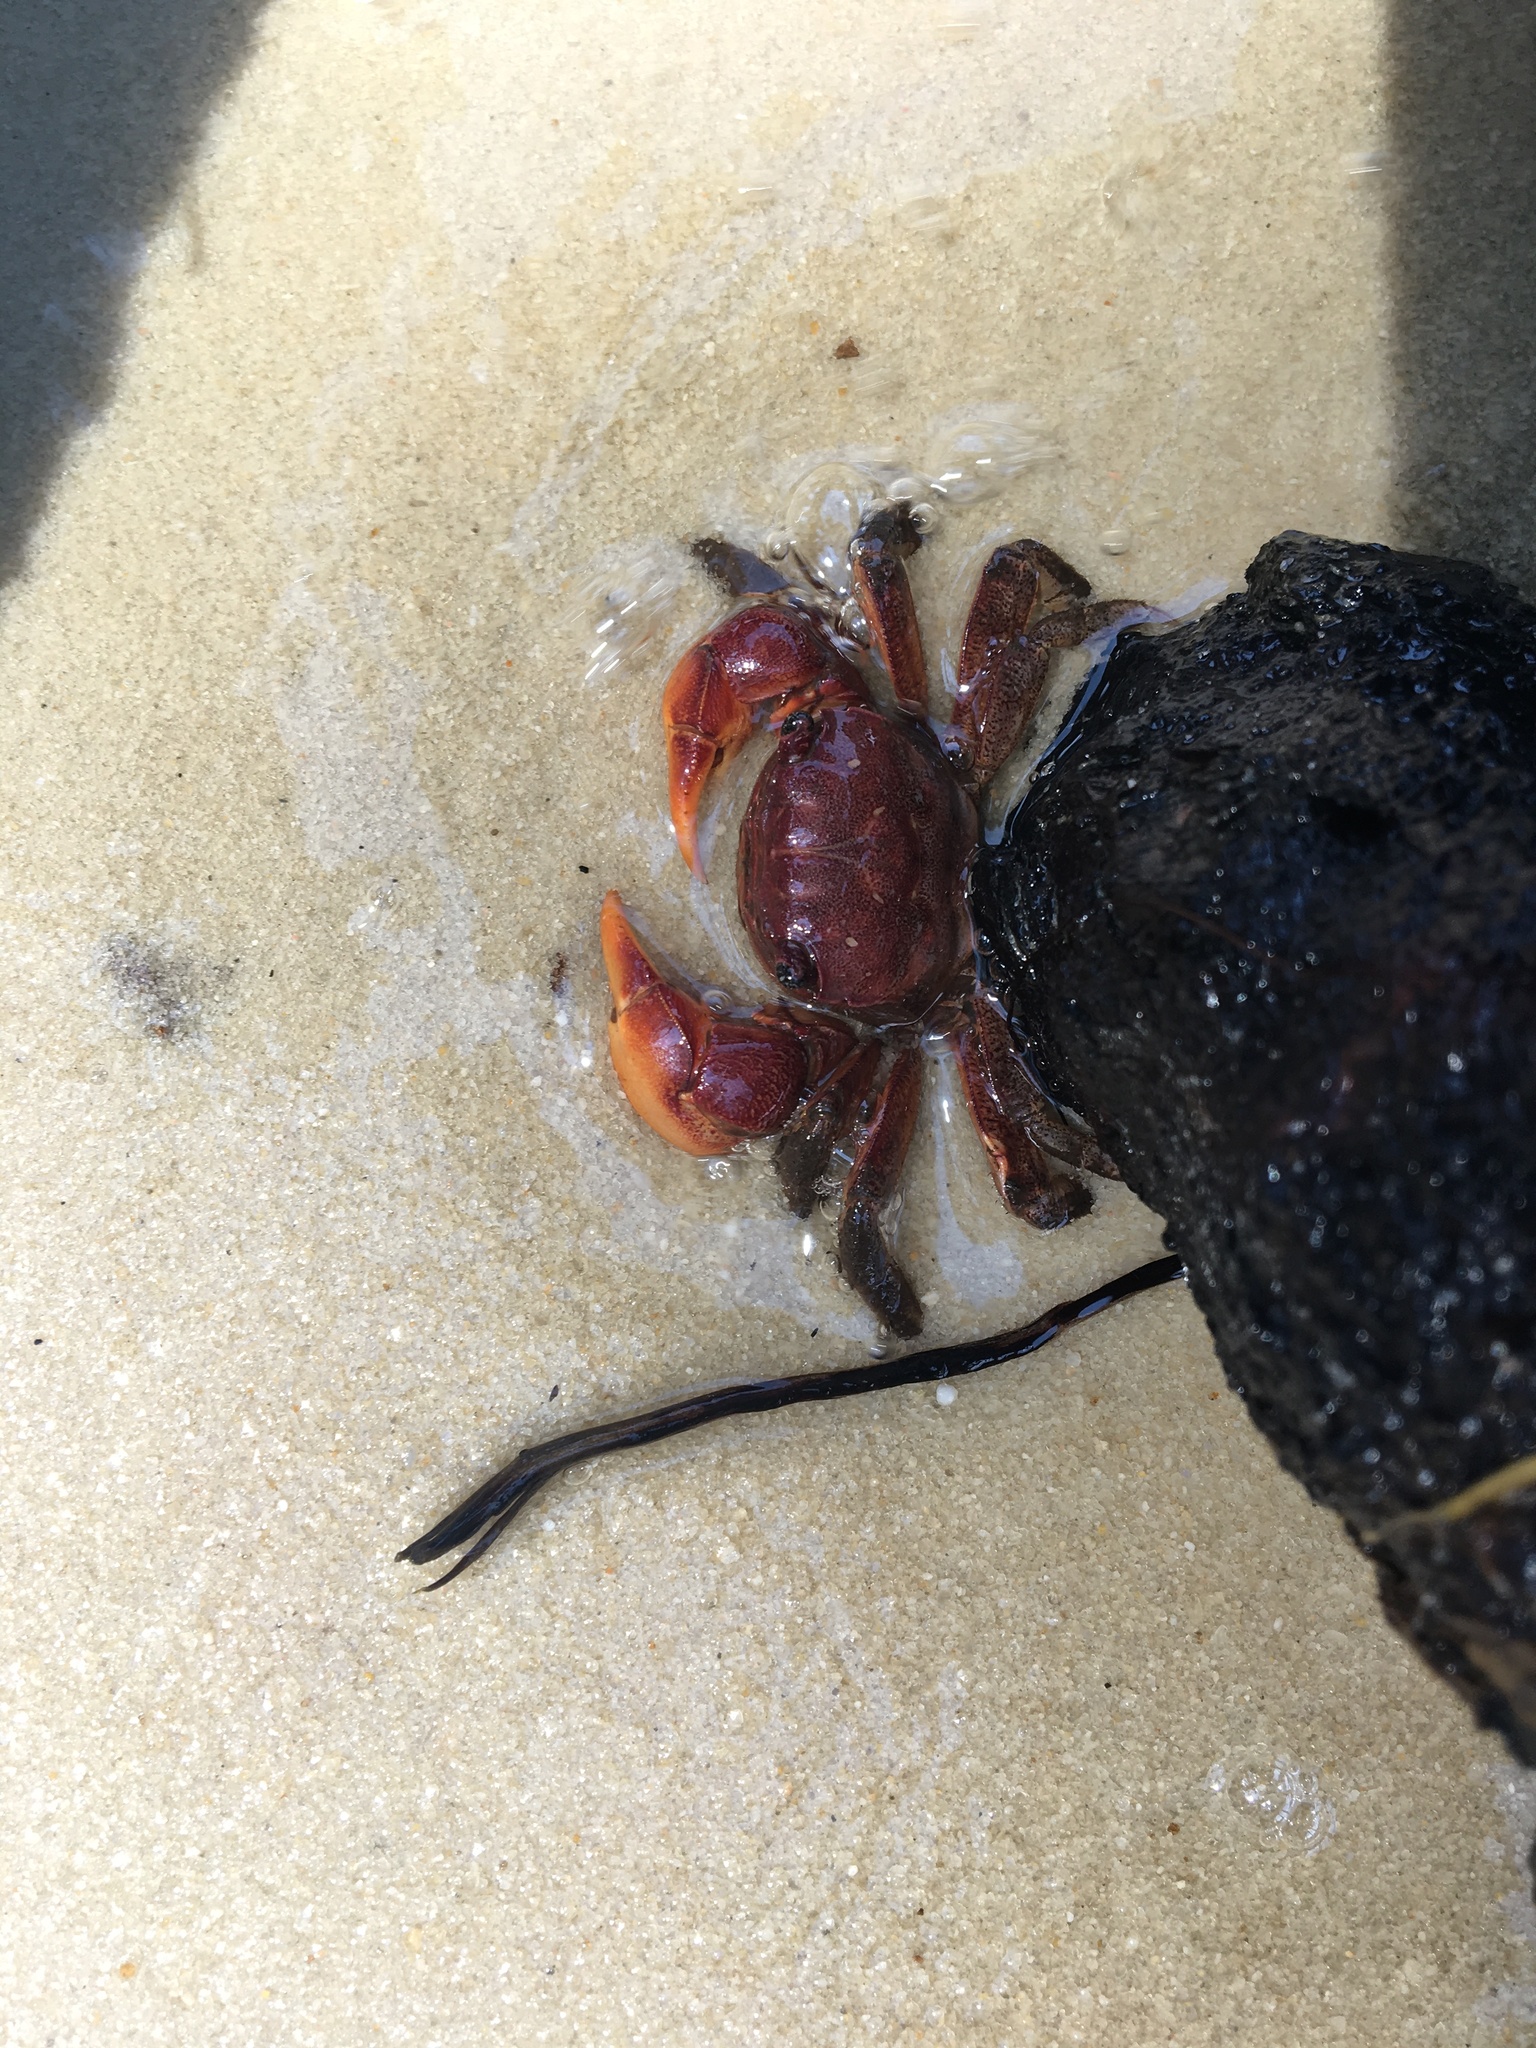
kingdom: Animalia
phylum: Arthropoda
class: Malacostraca
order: Decapoda
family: Sesarmidae
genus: Sesarma
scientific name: Sesarma reticulatum
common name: Heavy marsh crab
